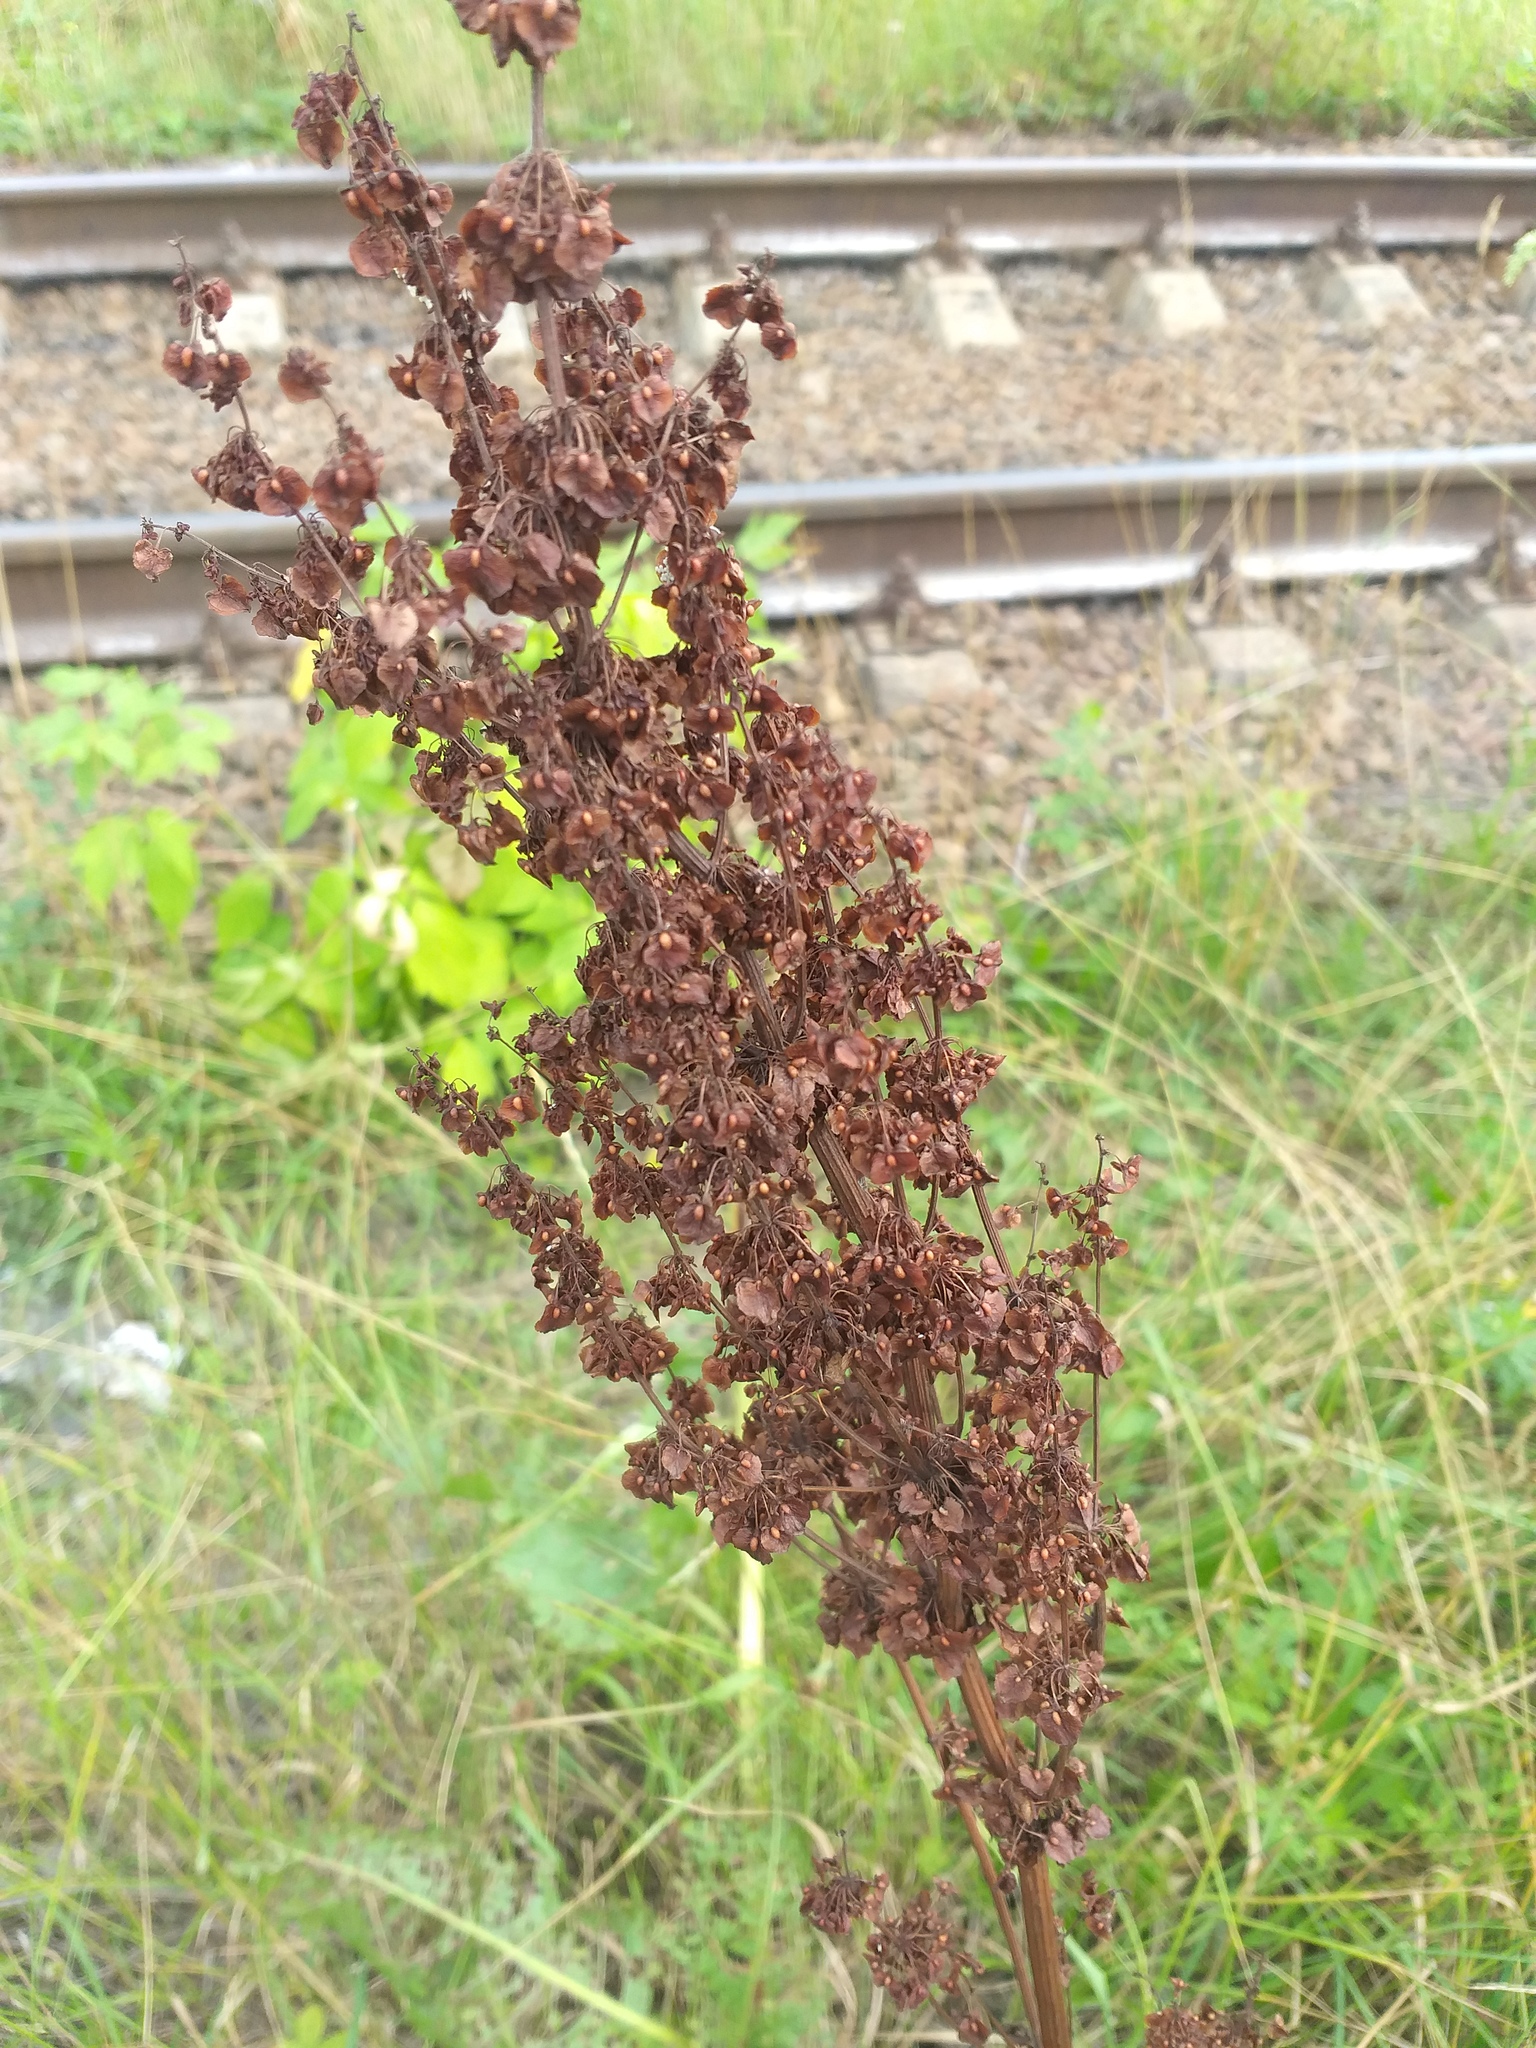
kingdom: Plantae
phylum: Tracheophyta
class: Magnoliopsida
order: Caryophyllales
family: Polygonaceae
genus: Rumex
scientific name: Rumex confertus
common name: Russian dock
